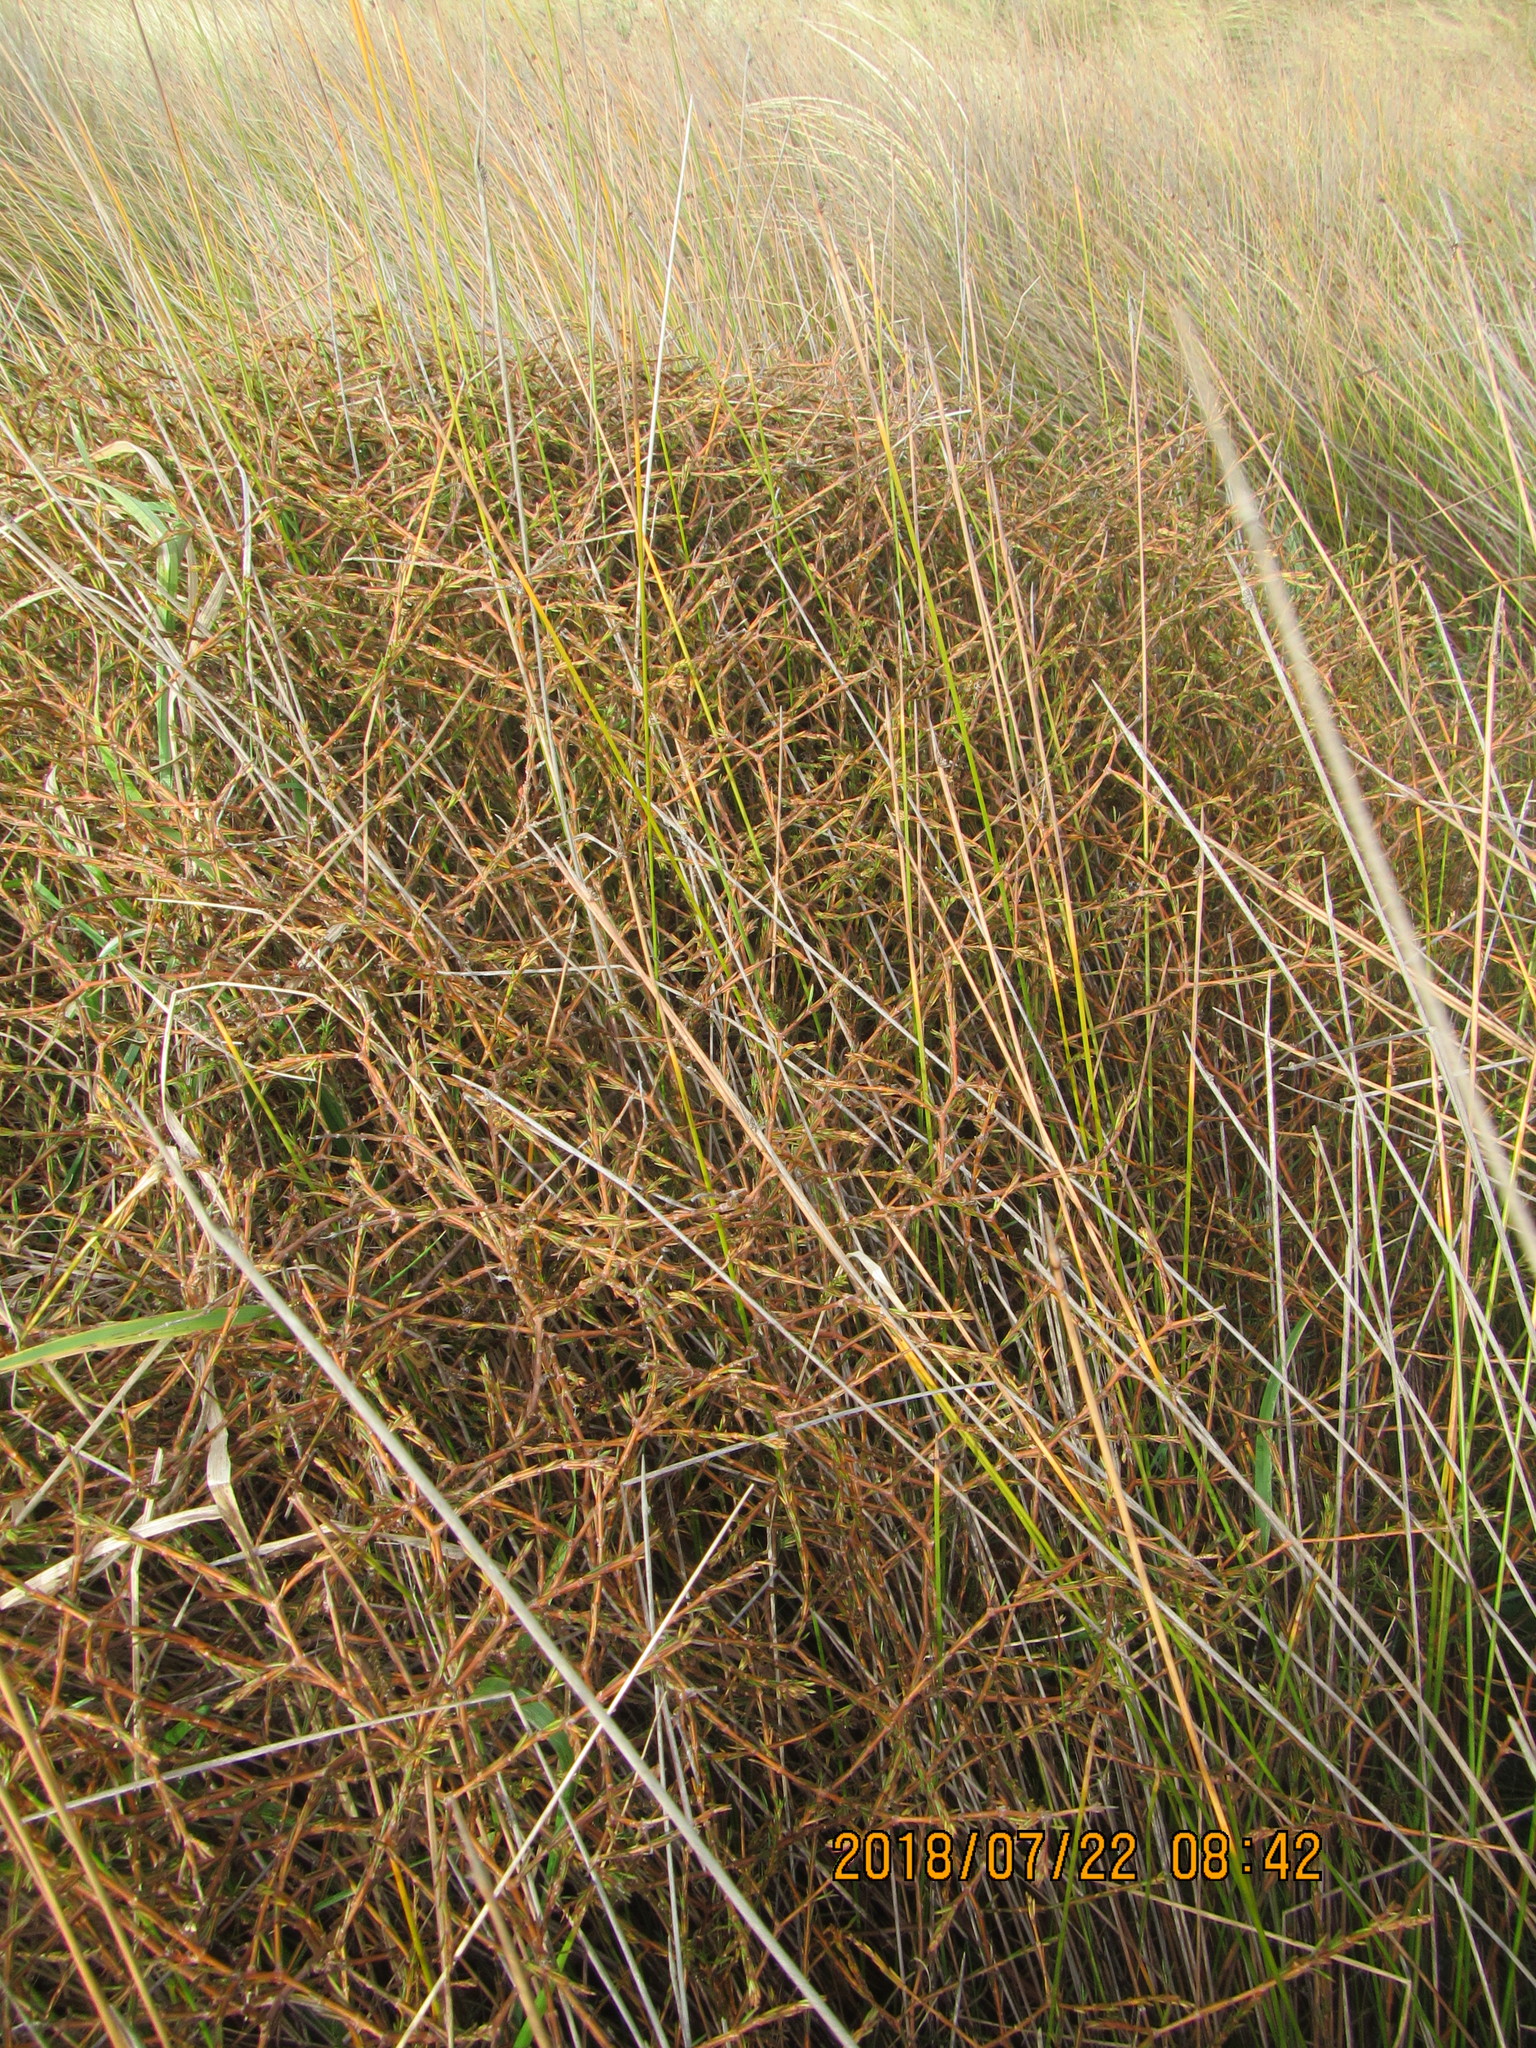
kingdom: Plantae
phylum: Tracheophyta
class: Magnoliopsida
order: Gentianales
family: Rubiaceae
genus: Coprosma
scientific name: Coprosma acerosa
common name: Sand coprosma
